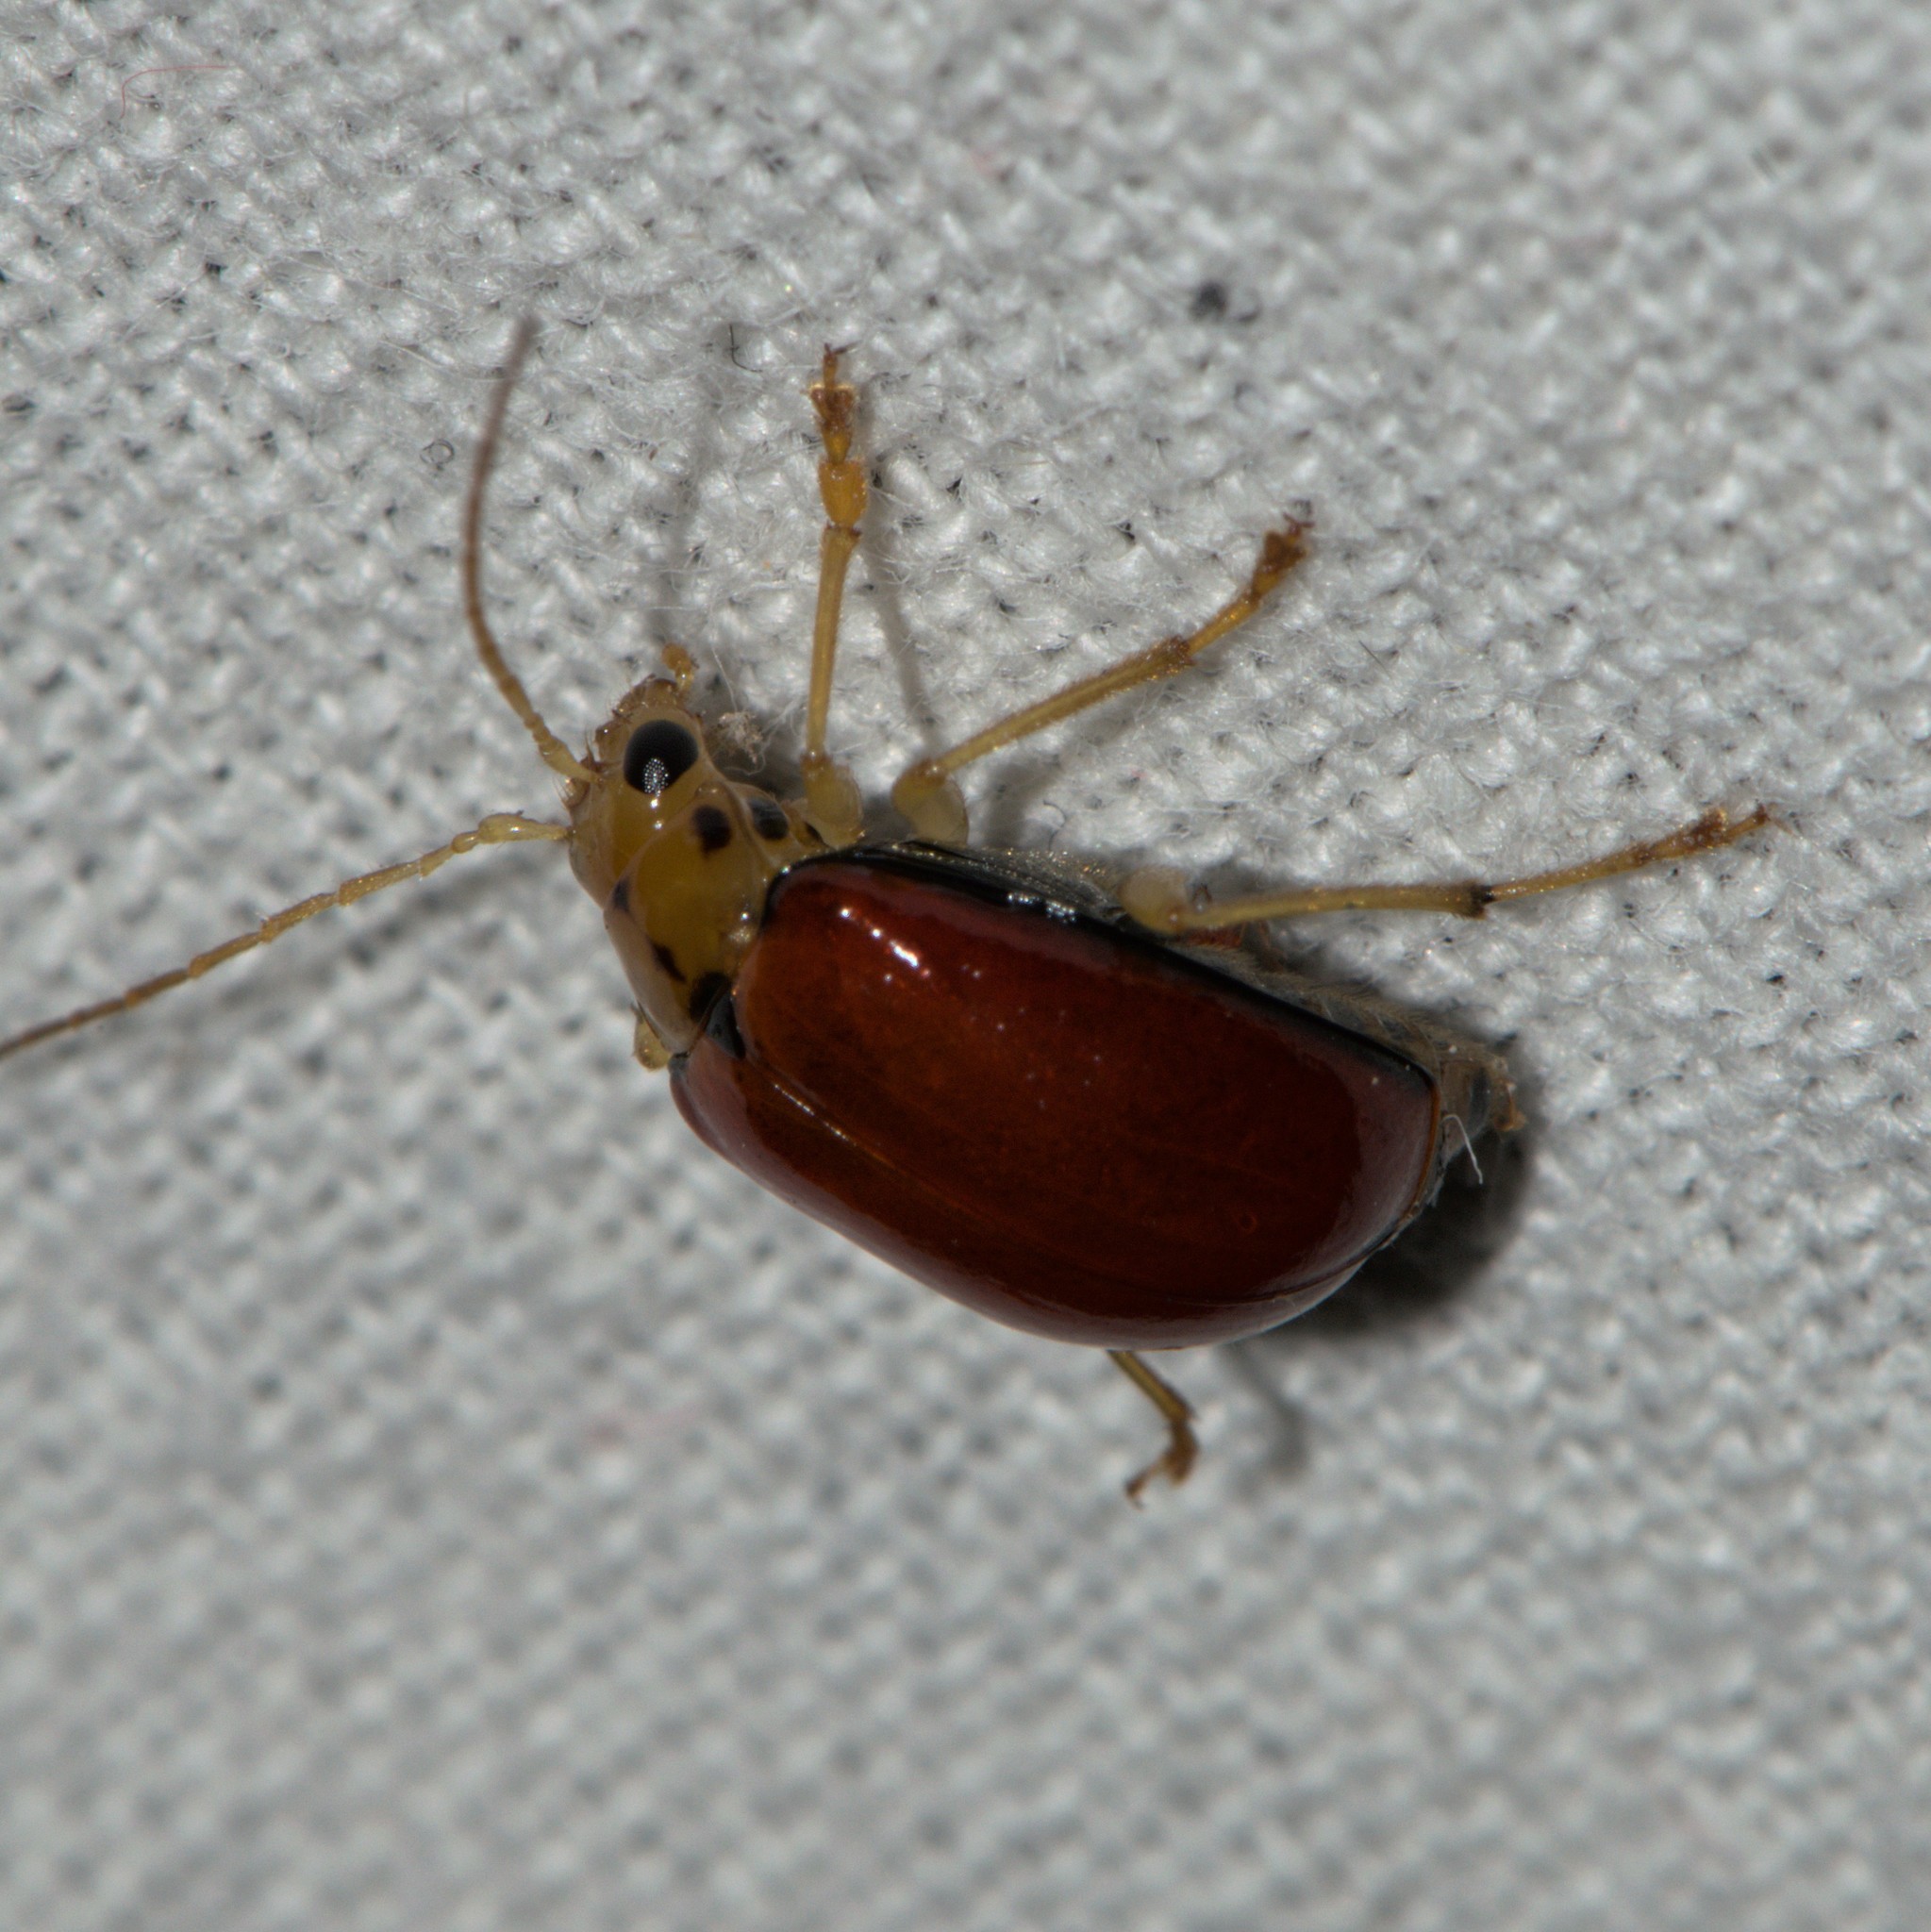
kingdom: Animalia
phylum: Arthropoda
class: Insecta
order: Coleoptera
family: Chrysomelidae
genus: Macrima
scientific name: Macrima
